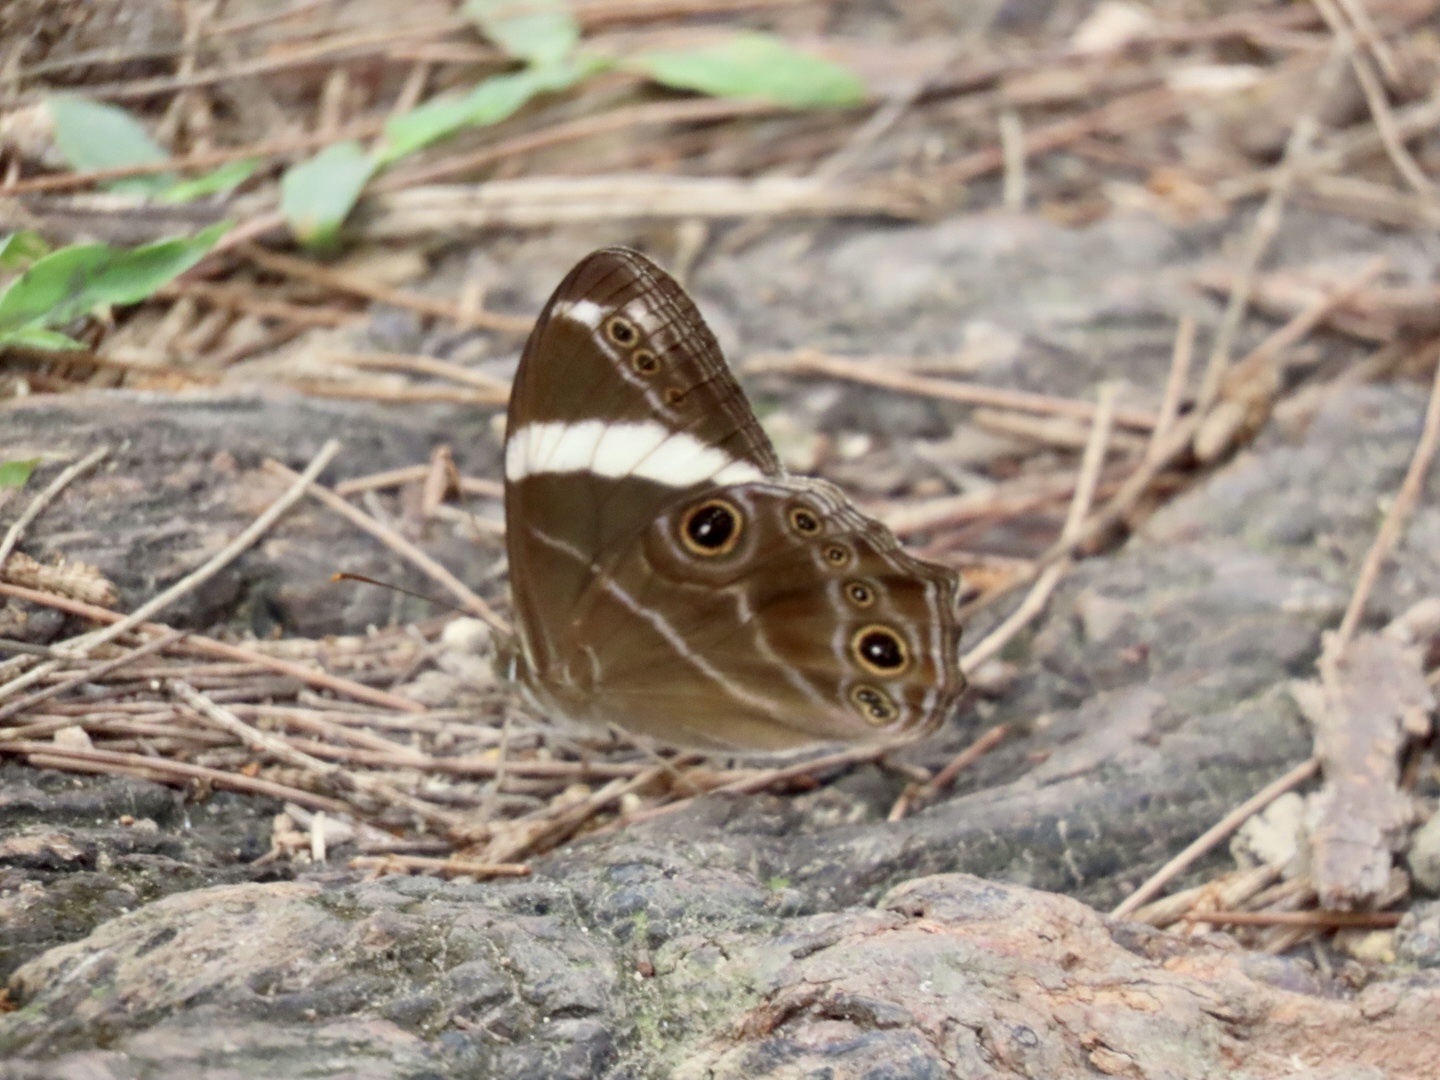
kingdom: Animalia
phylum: Arthropoda
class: Insecta
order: Lepidoptera
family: Nymphalidae
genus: Lethe
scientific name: Lethe confusa
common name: Banded treebrown
